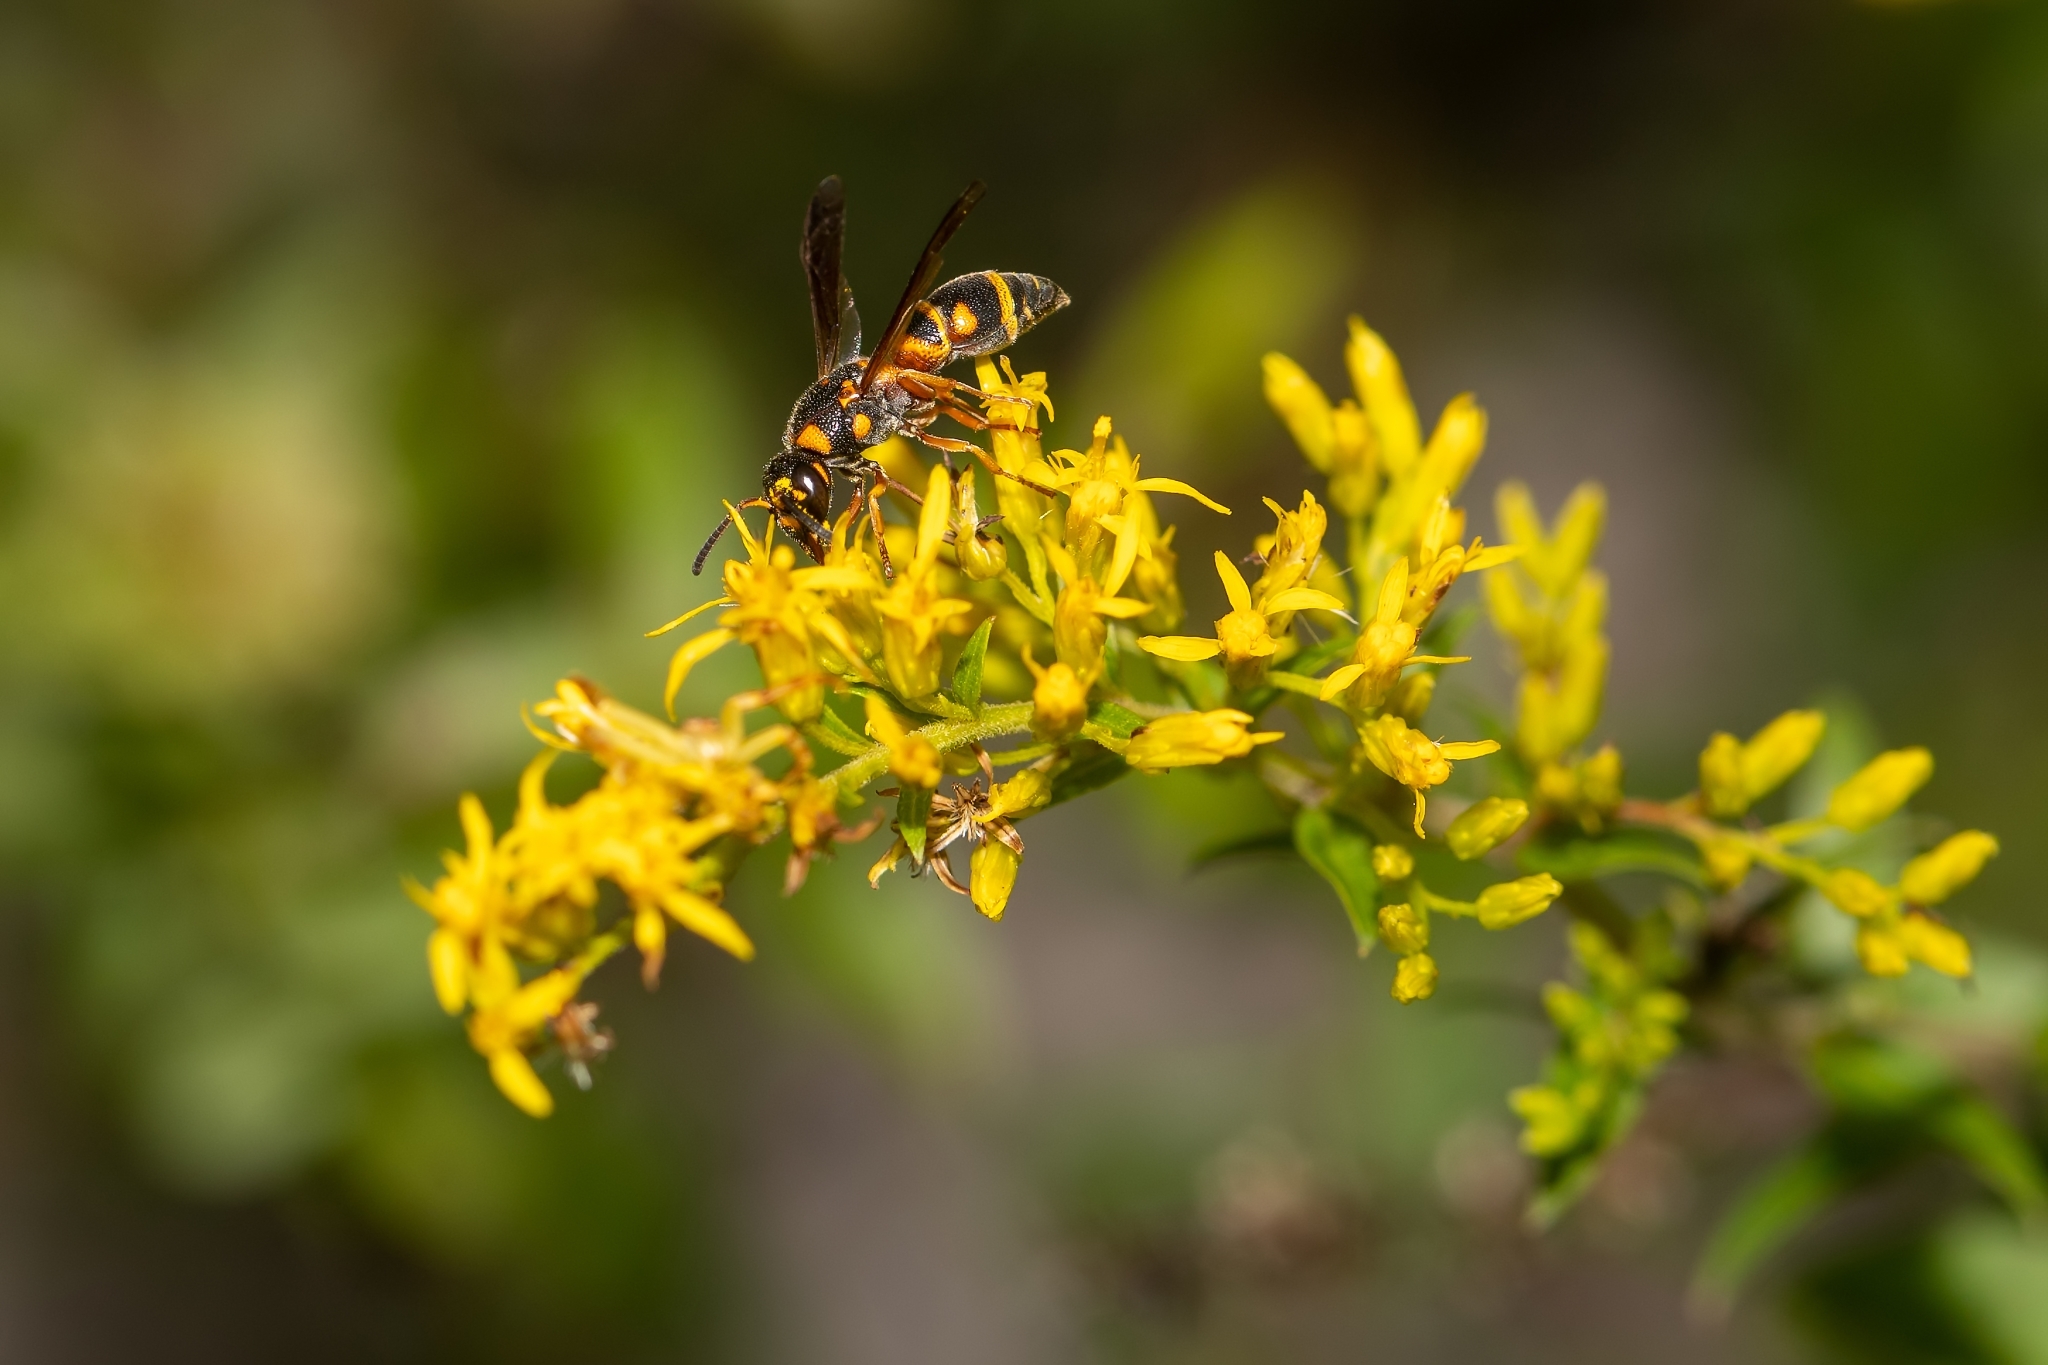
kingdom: Animalia
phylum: Arthropoda
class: Insecta
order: Hymenoptera
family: Eumenidae
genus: Parancistrocerus
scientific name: Parancistrocerus salcularis
